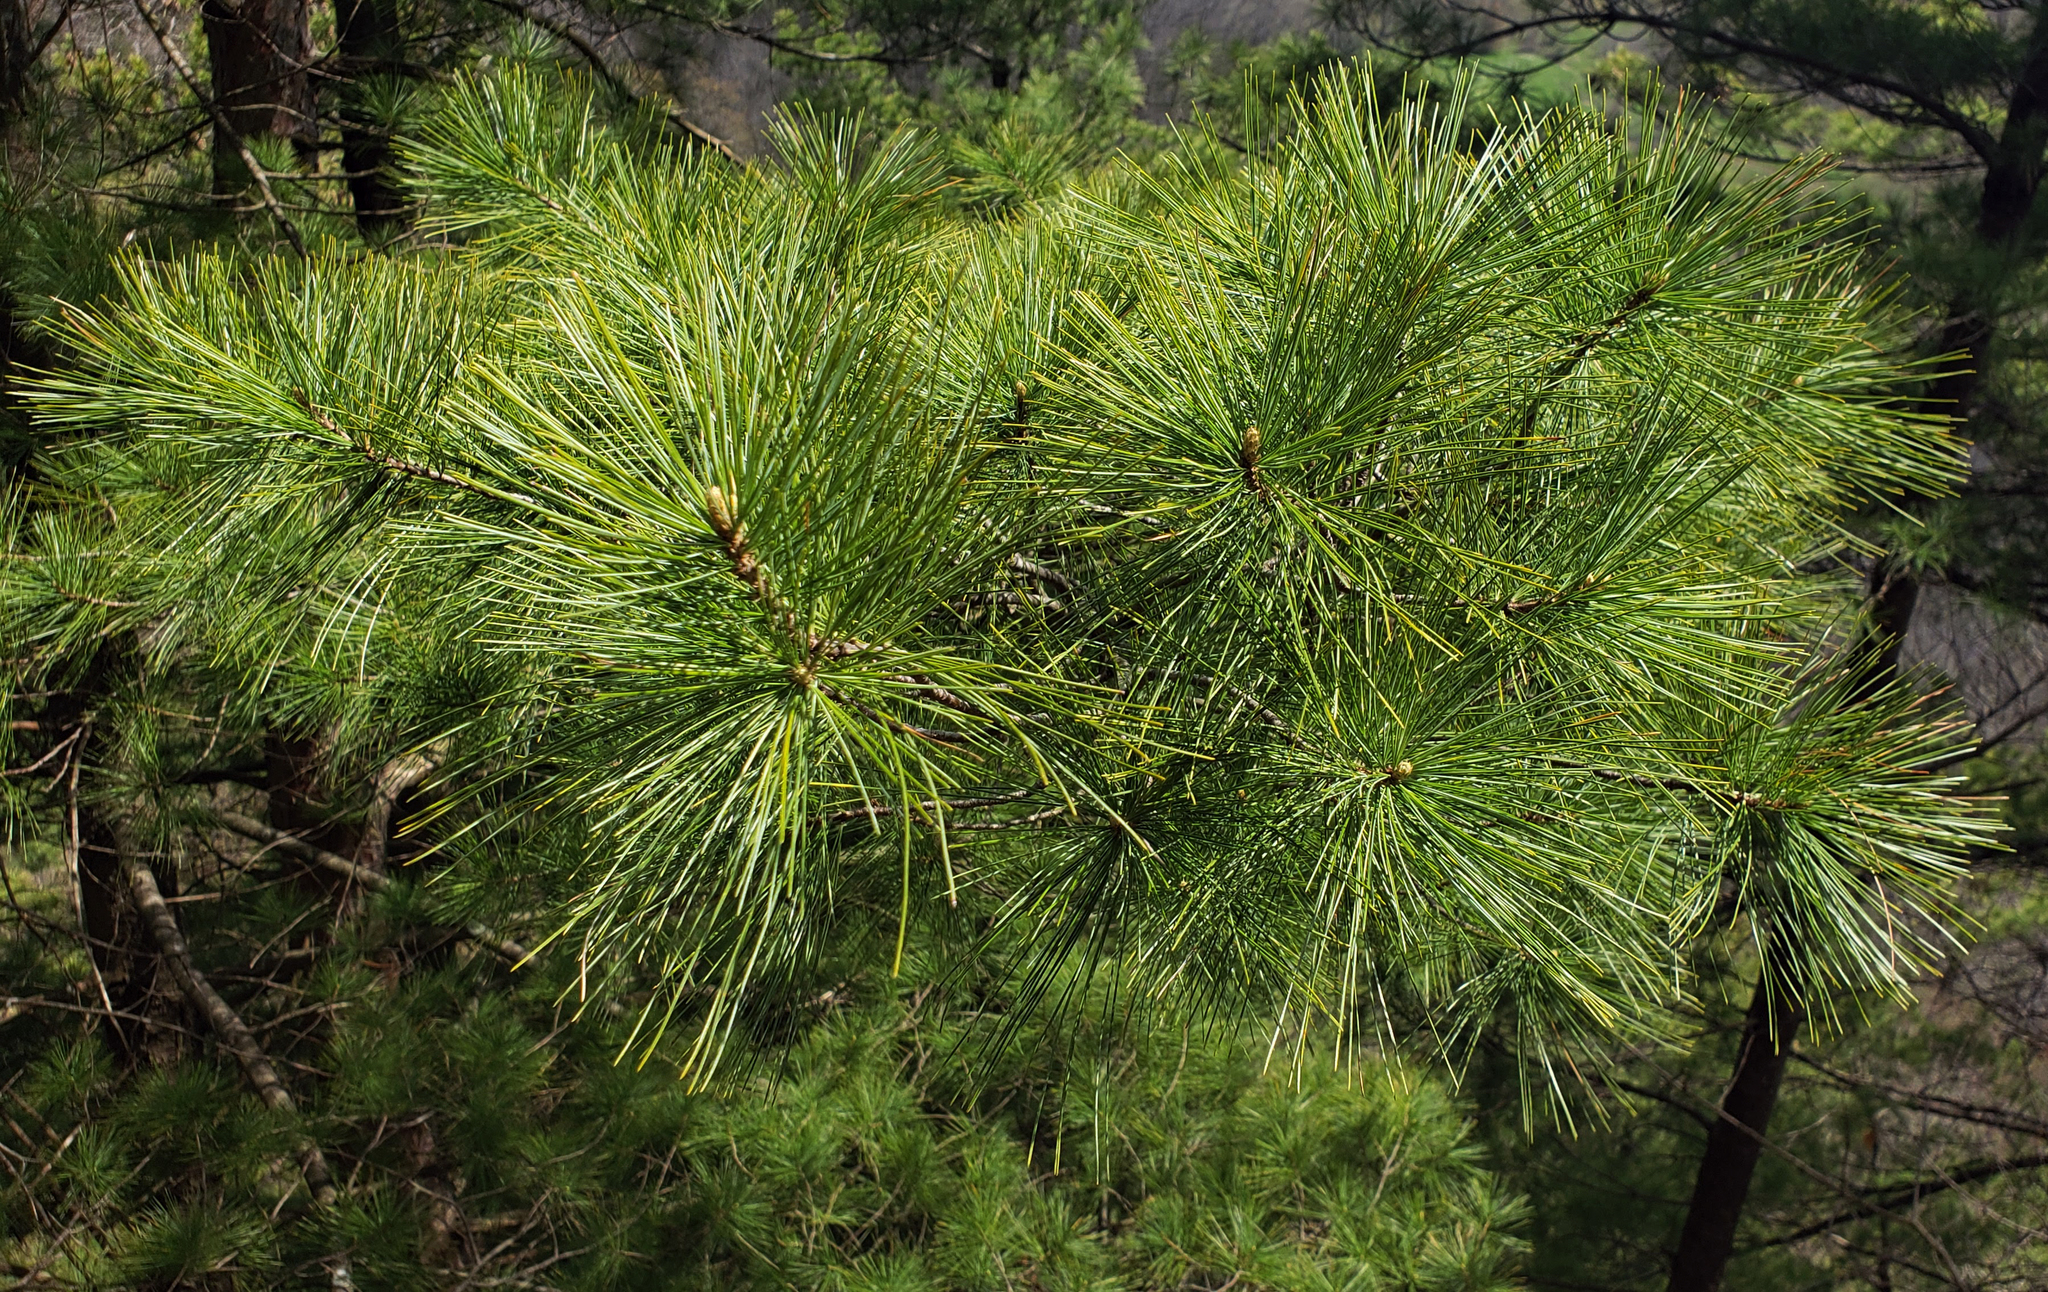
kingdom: Plantae
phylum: Tracheophyta
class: Pinopsida
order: Pinales
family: Pinaceae
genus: Pinus
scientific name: Pinus strobus
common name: Weymouth pine
